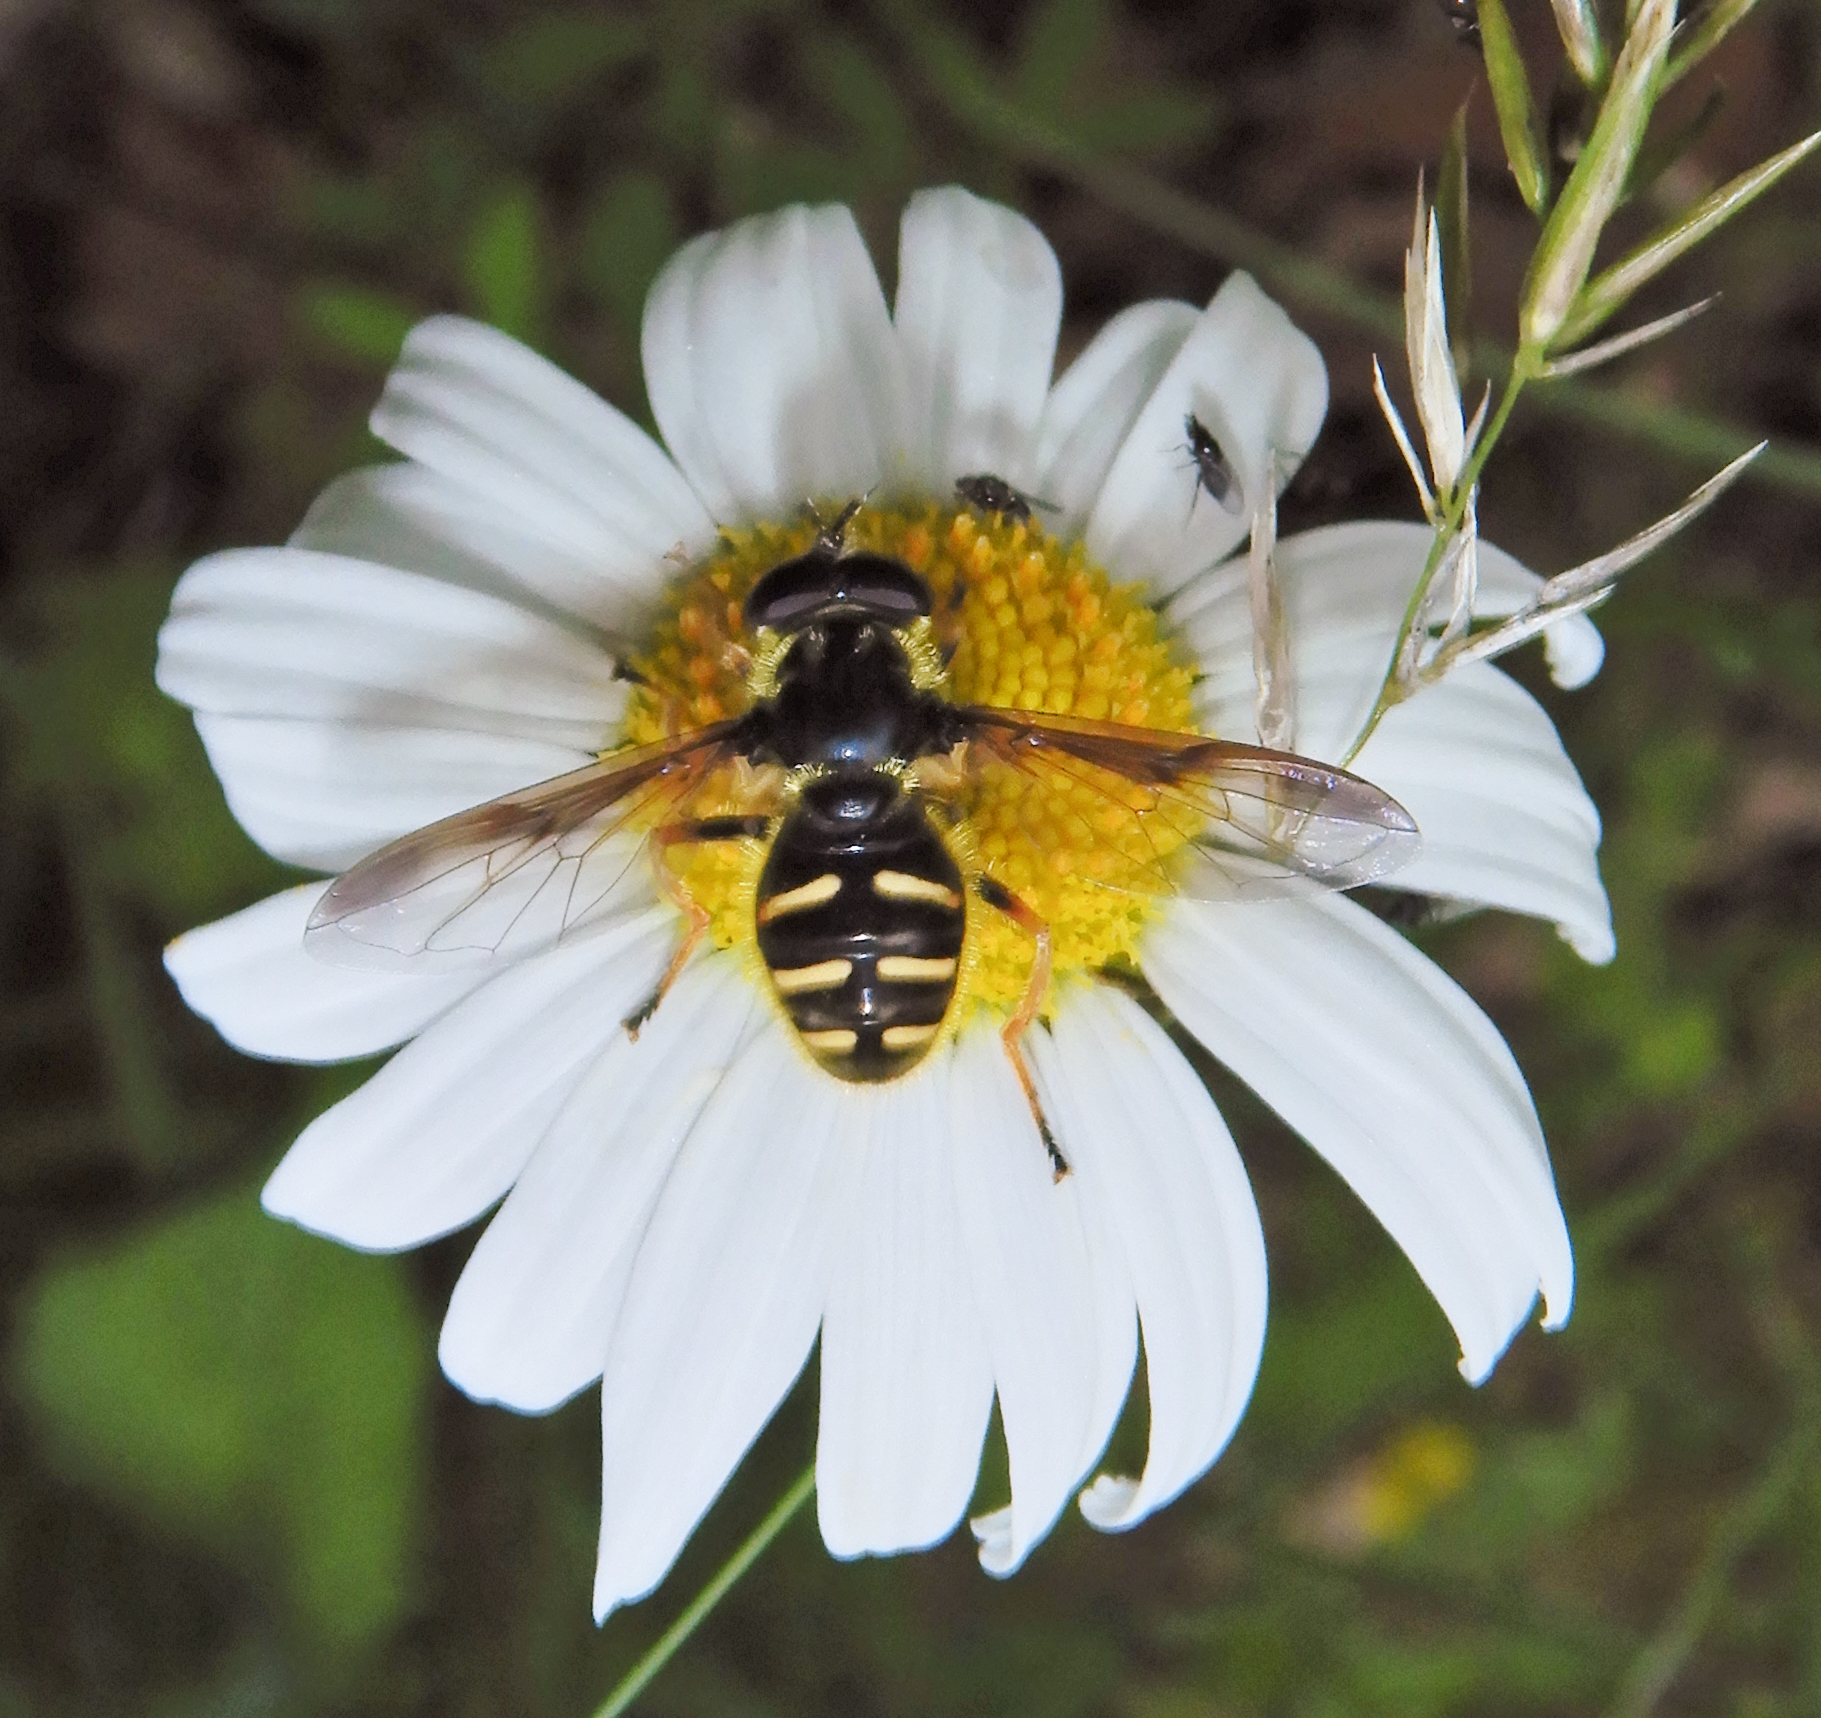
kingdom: Animalia
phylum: Arthropoda
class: Insecta
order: Diptera
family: Syrphidae
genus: Sericomyia
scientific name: Sericomyia chrysotoxoides
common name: Oblique-banded pond fly
